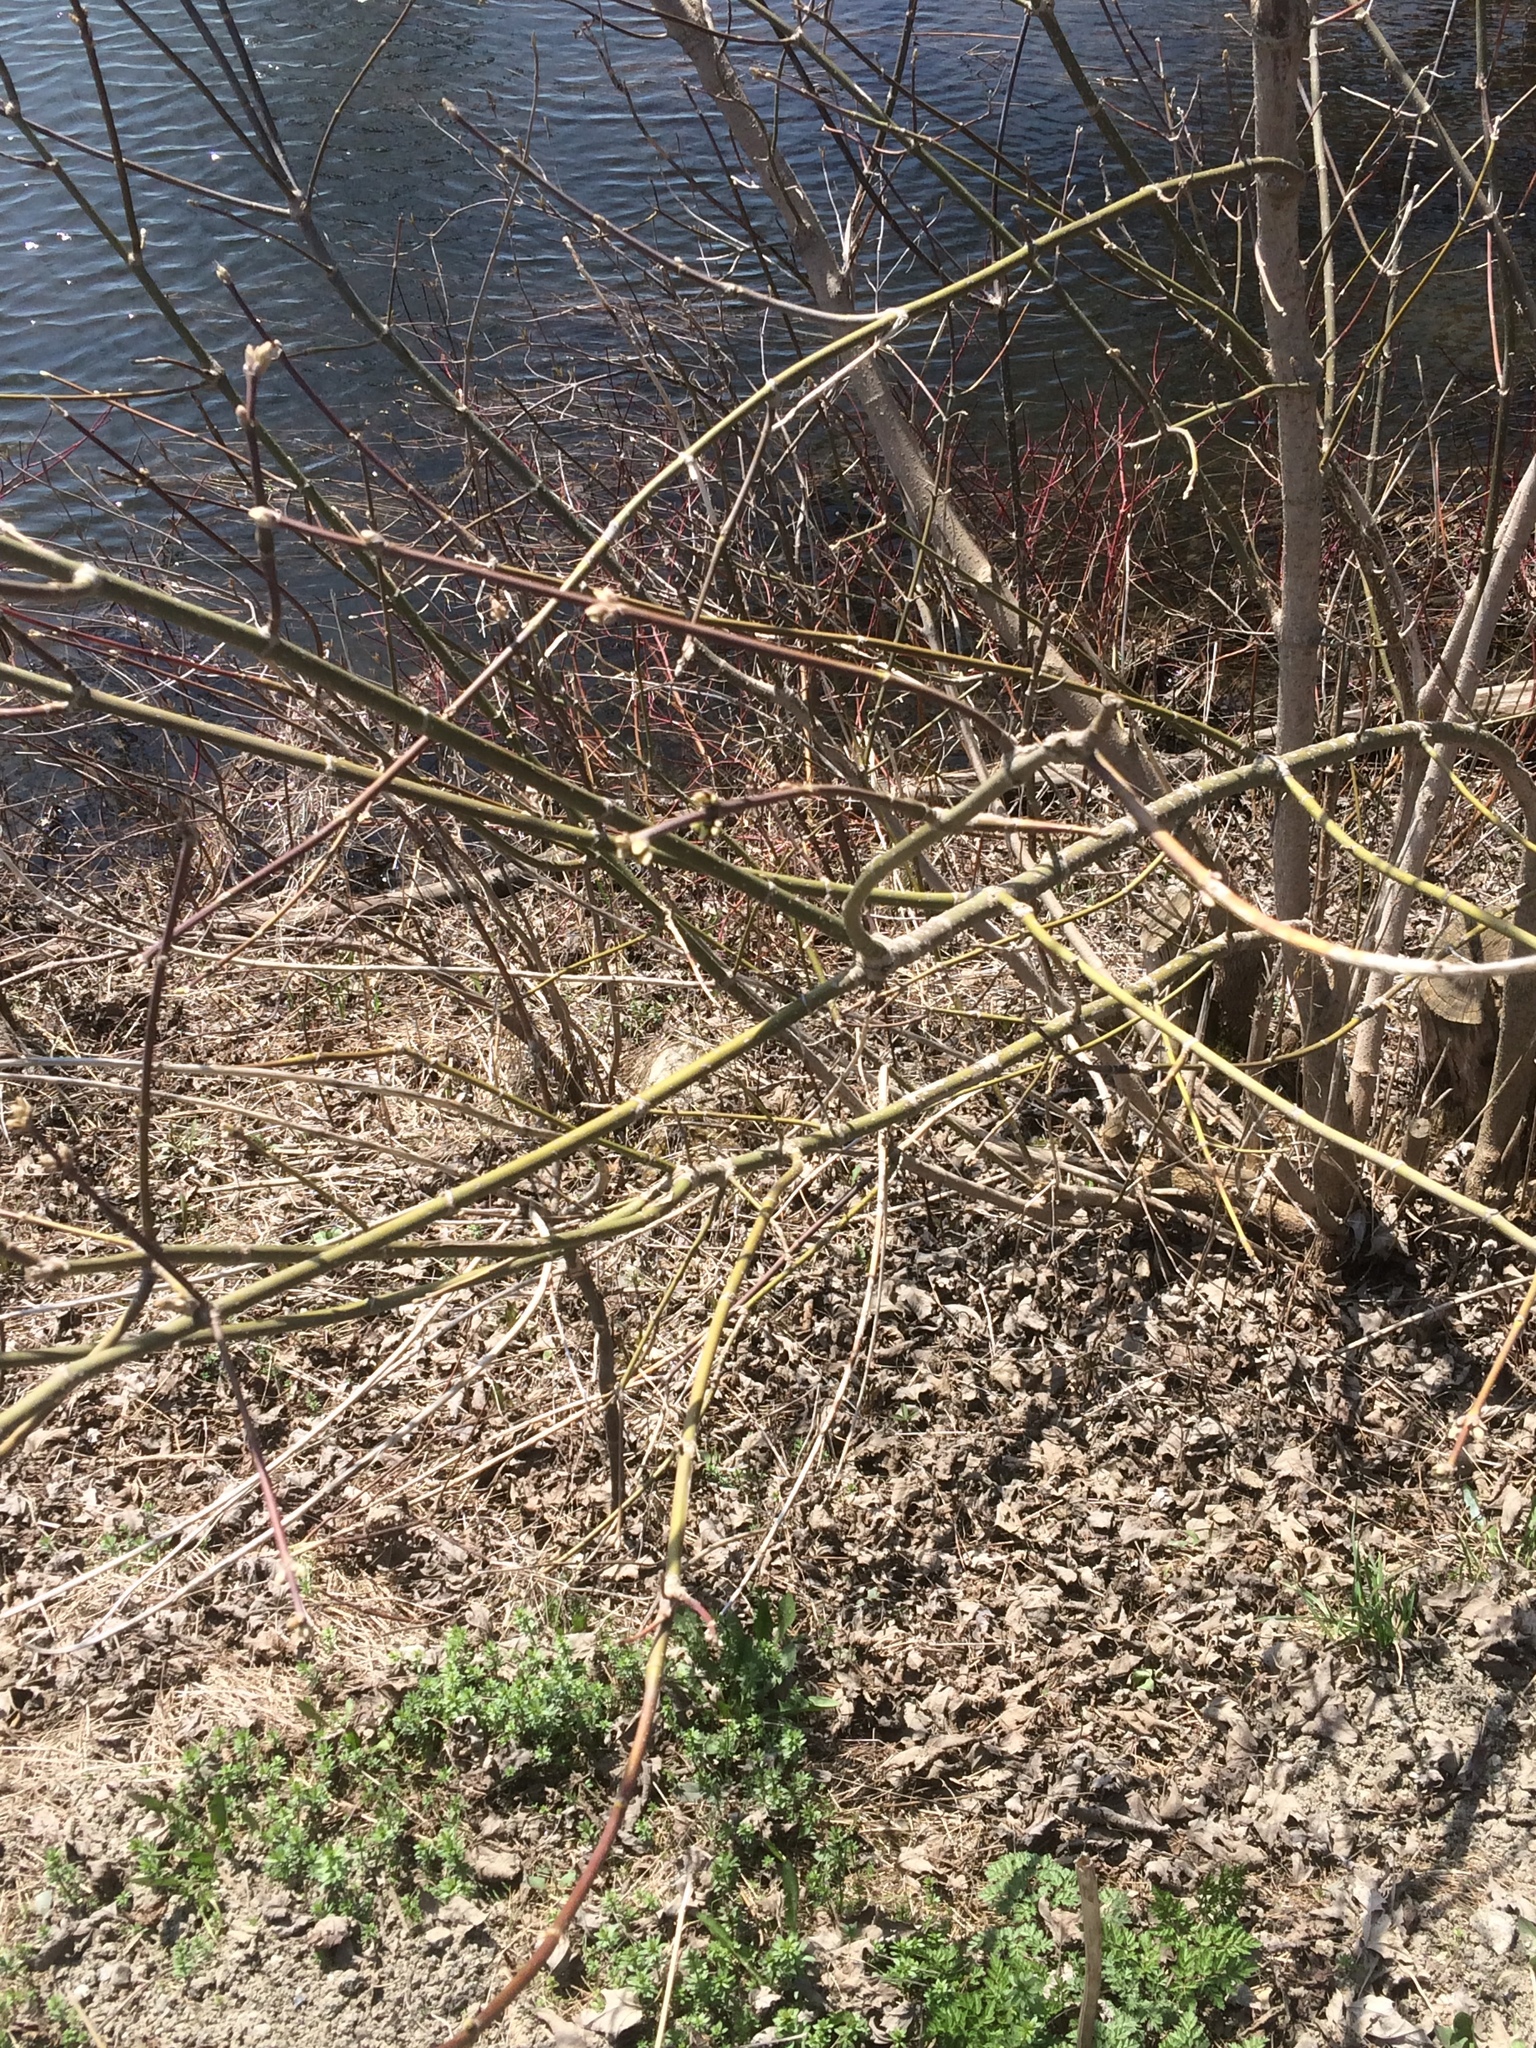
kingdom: Plantae
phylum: Tracheophyta
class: Magnoliopsida
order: Sapindales
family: Sapindaceae
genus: Acer
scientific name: Acer negundo
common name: Ashleaf maple
